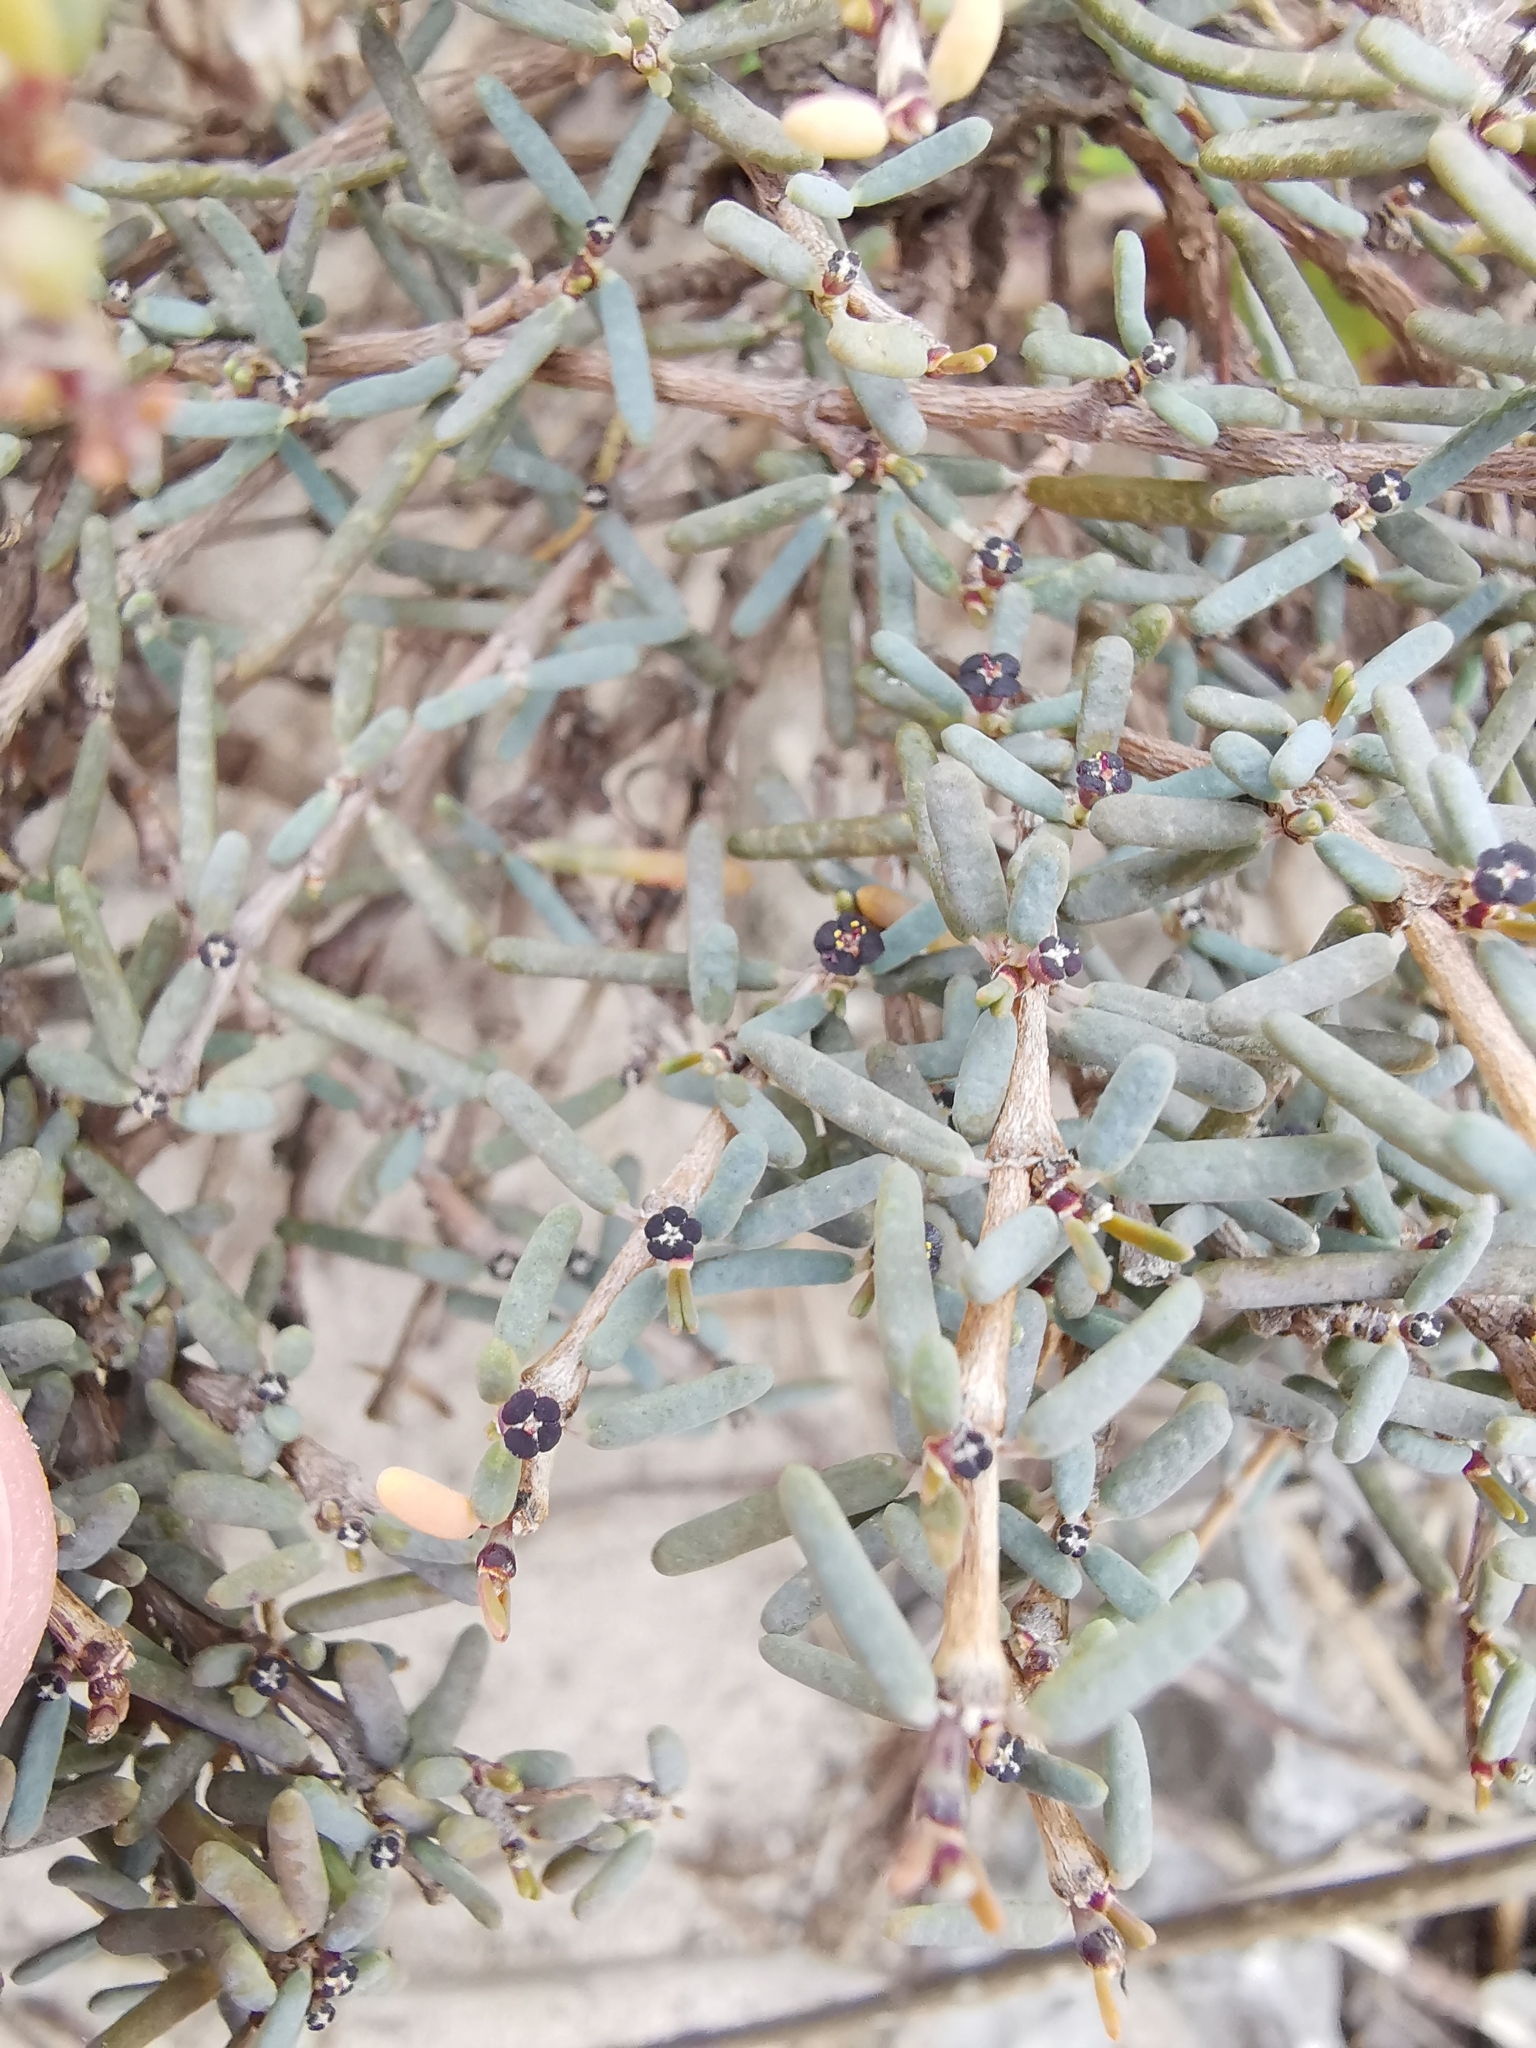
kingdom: Plantae
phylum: Tracheophyta
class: Magnoliopsida
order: Malpighiales
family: Euphorbiaceae
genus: Euphorbia
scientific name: Euphorbia vaginulata
